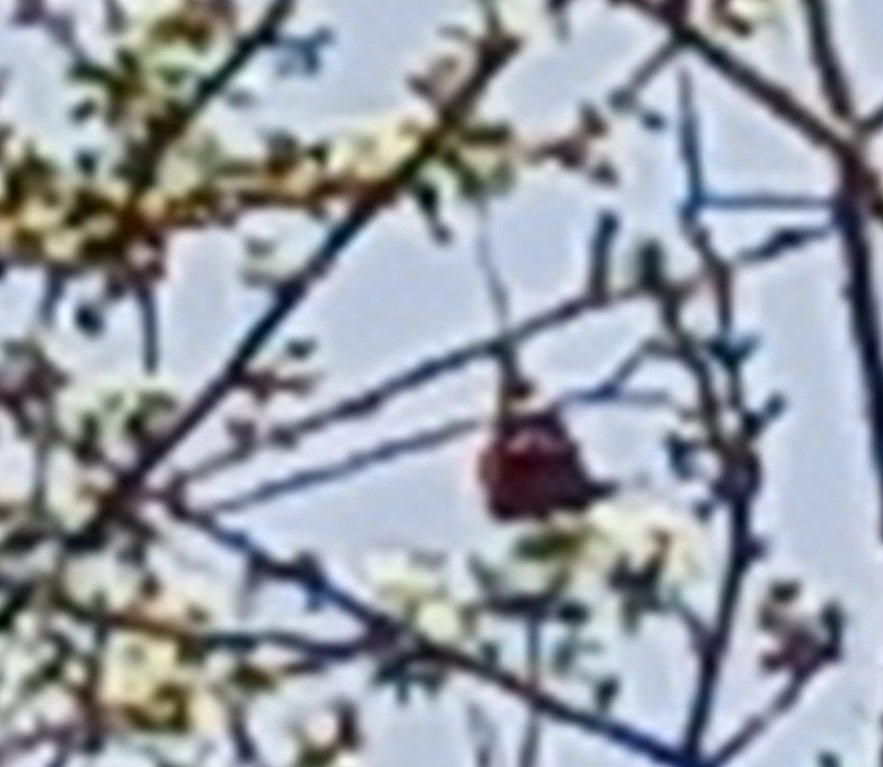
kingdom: Animalia
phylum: Arthropoda
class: Insecta
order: Lepidoptera
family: Nymphalidae
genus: Vanessa
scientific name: Vanessa atalanta
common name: Red admiral
